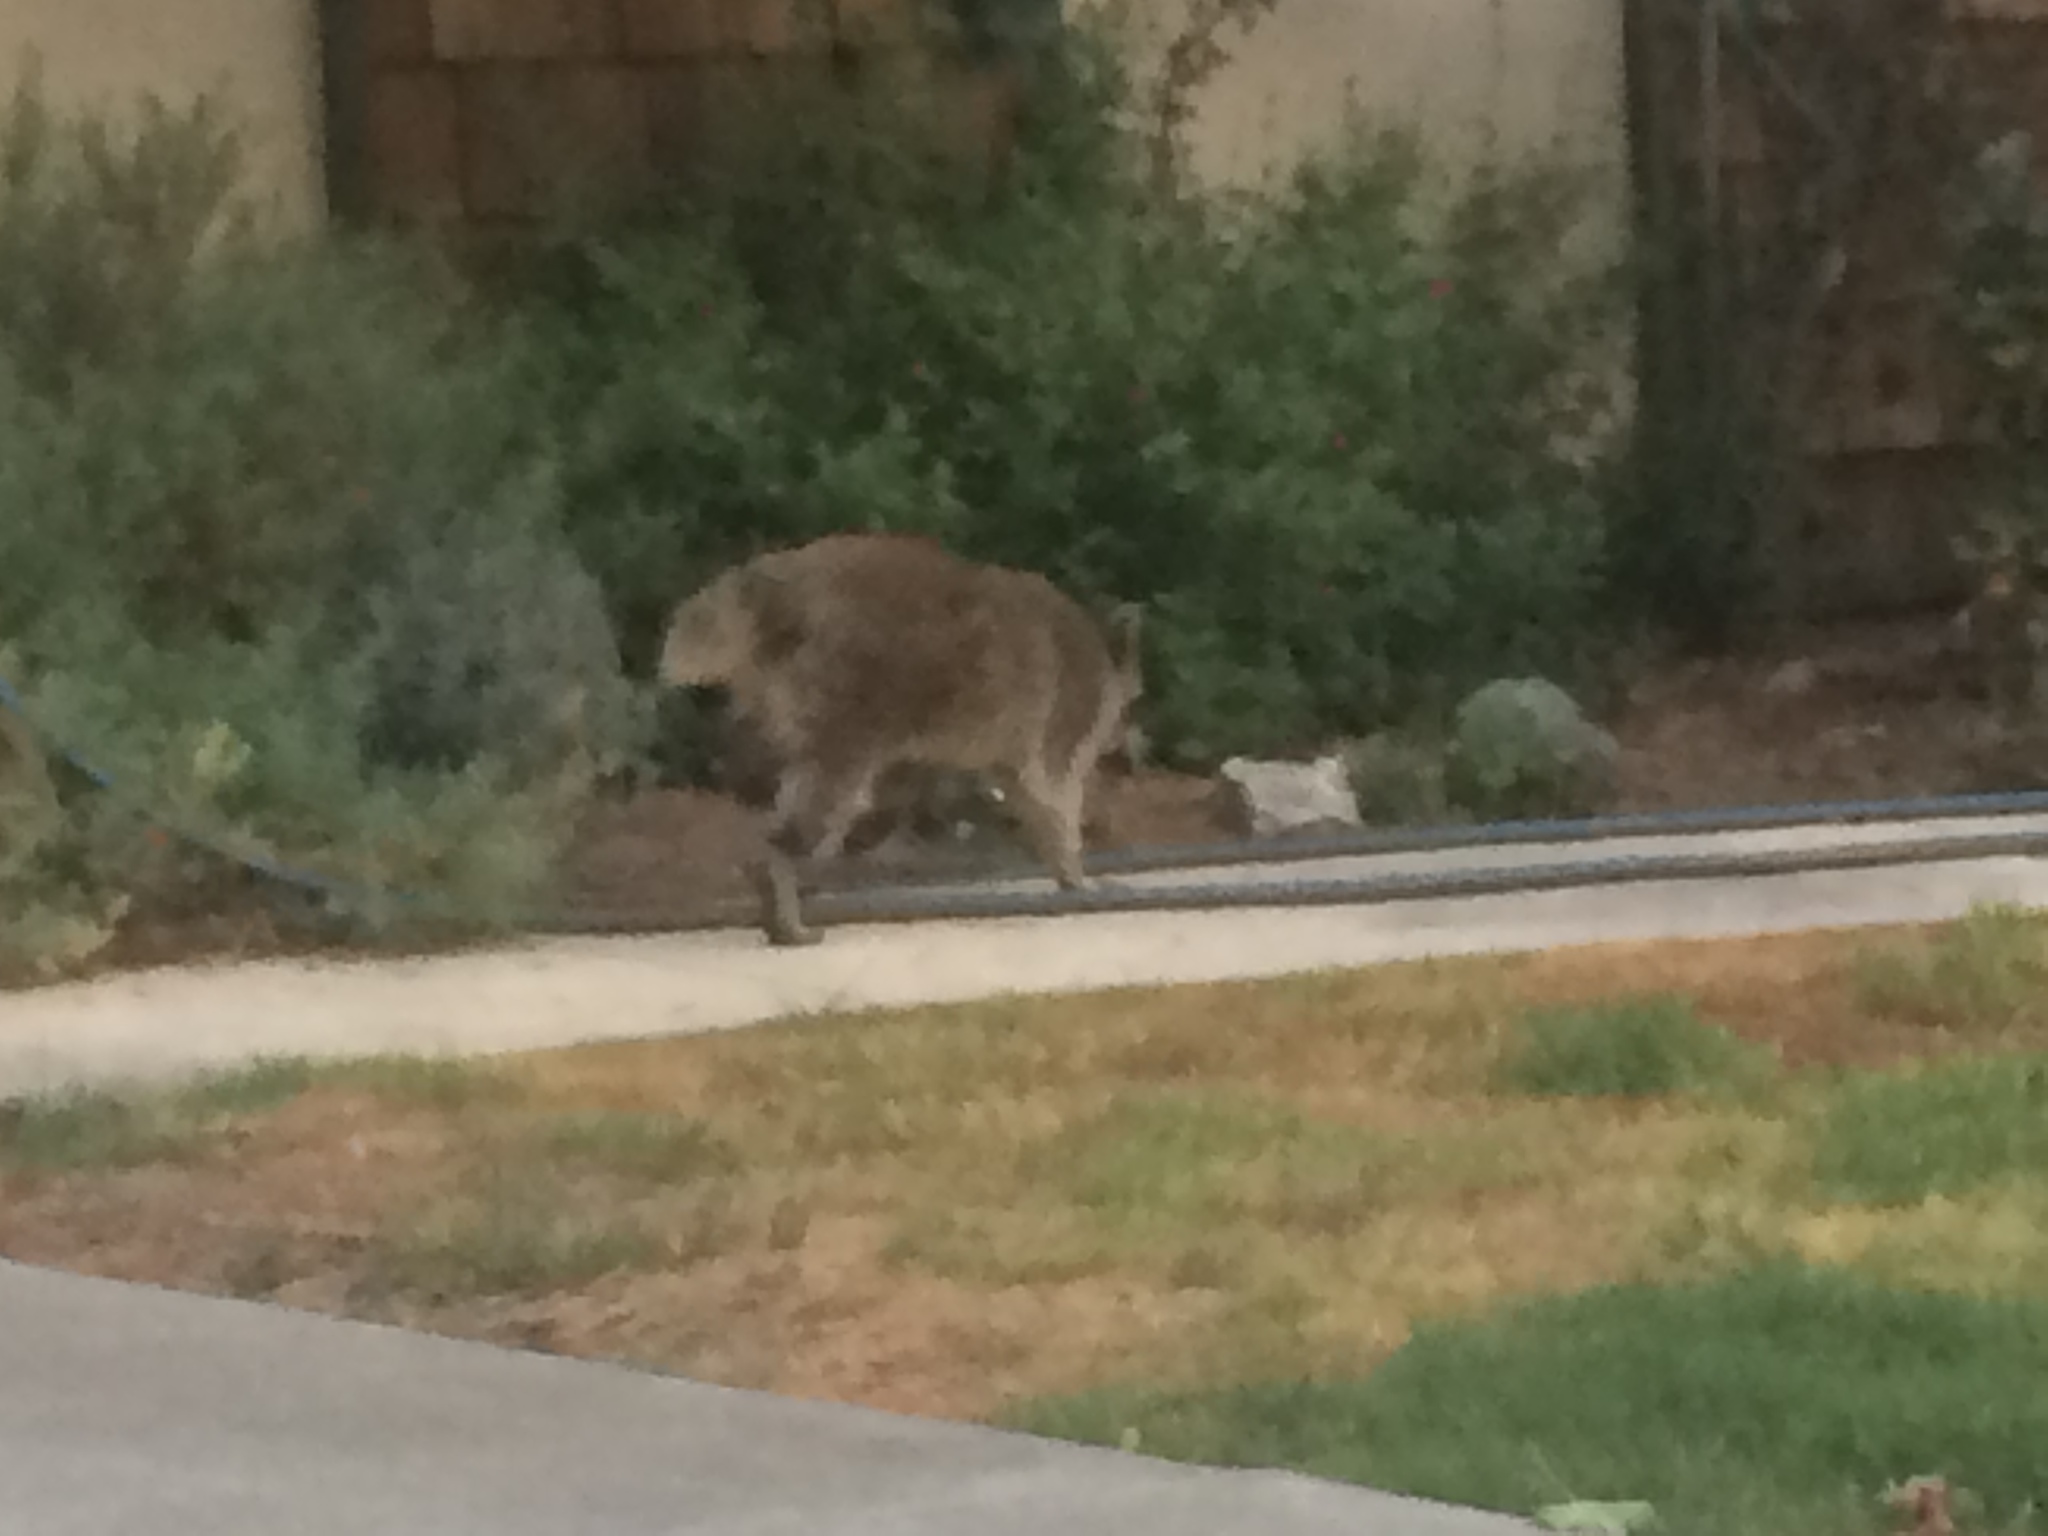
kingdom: Animalia
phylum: Chordata
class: Mammalia
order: Carnivora
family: Procyonidae
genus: Procyon
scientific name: Procyon lotor
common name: Raccoon
